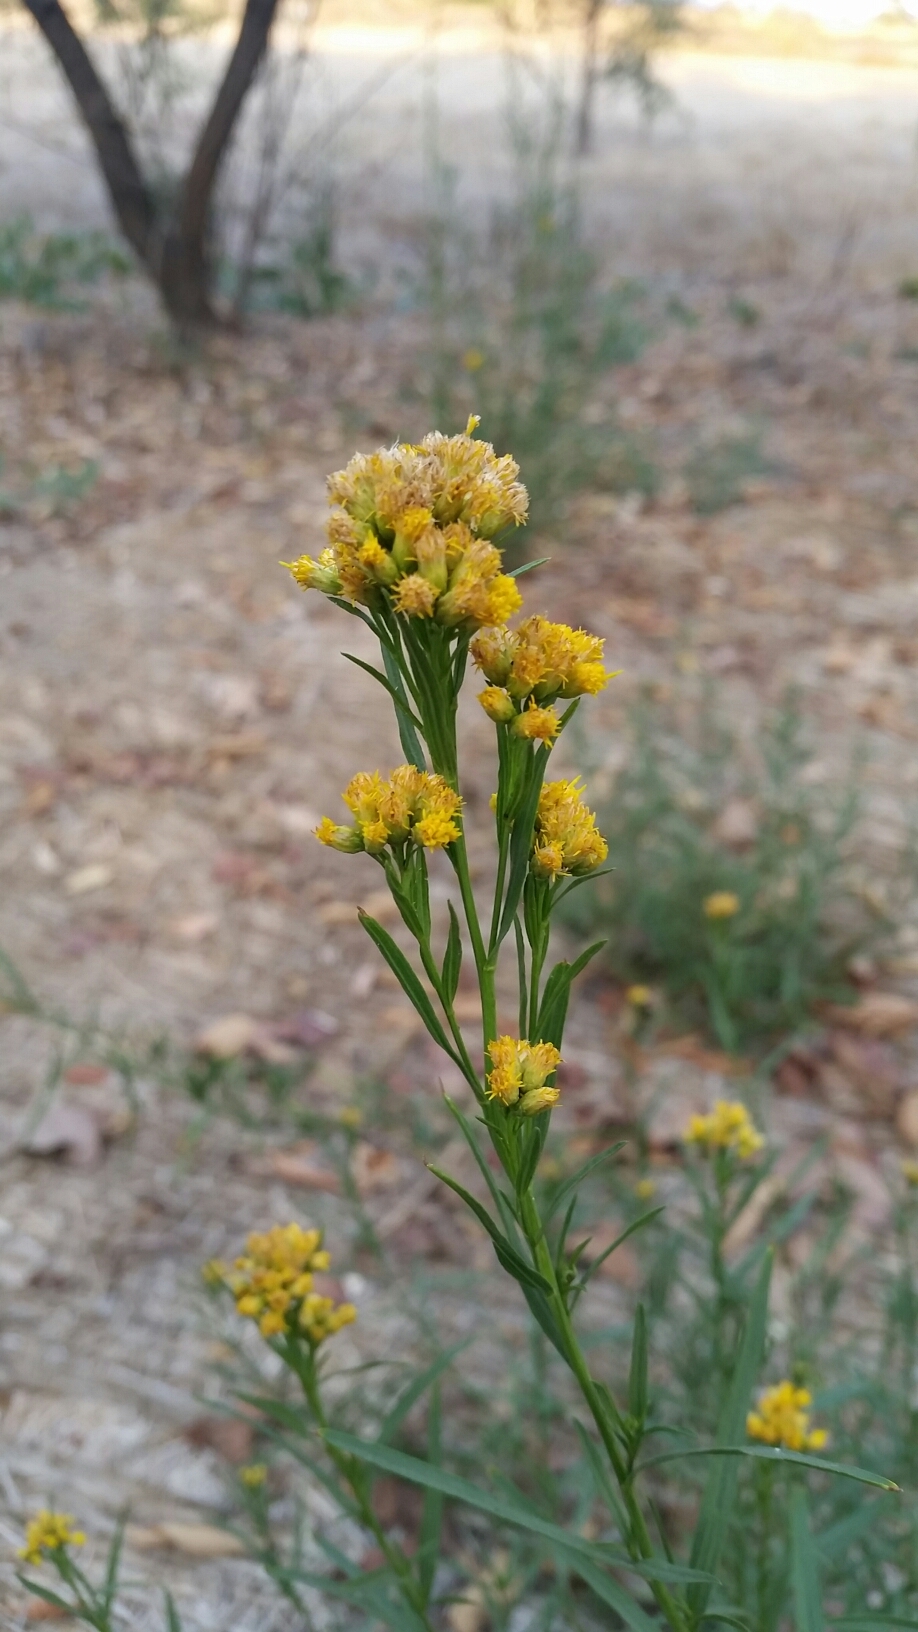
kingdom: Plantae
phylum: Tracheophyta
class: Magnoliopsida
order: Asterales
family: Asteraceae
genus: Euthamia
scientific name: Euthamia occidentalis
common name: Western goldentop
